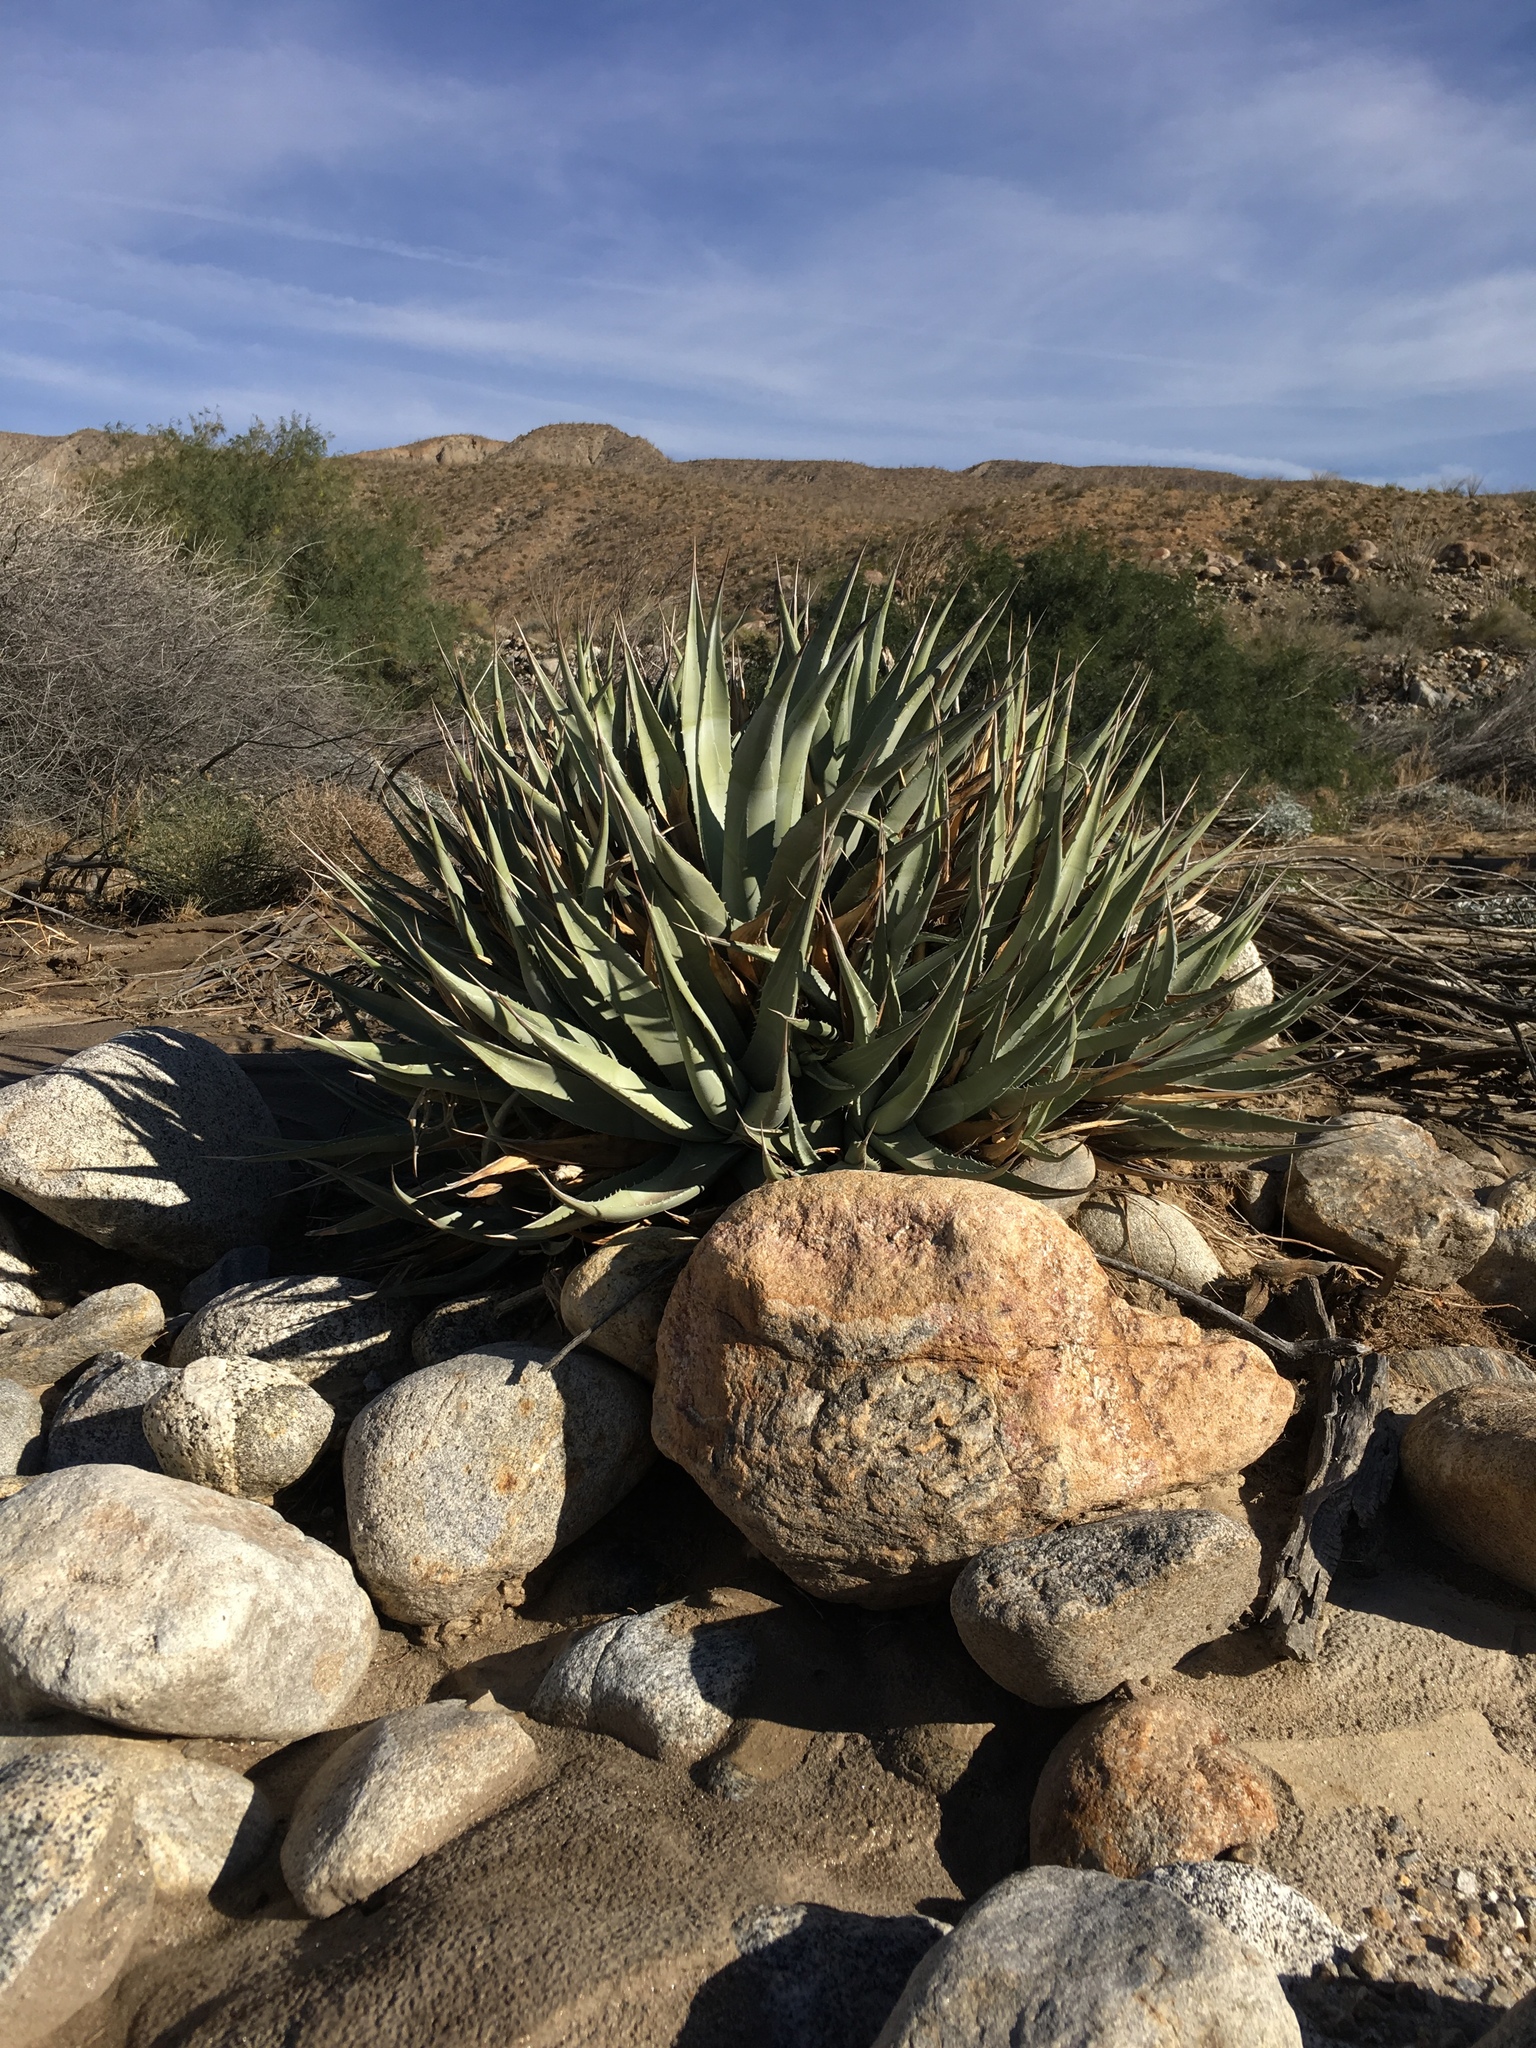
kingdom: Plantae
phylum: Tracheophyta
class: Liliopsida
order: Asparagales
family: Asparagaceae
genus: Agave
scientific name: Agave deserti
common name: Desert agave
